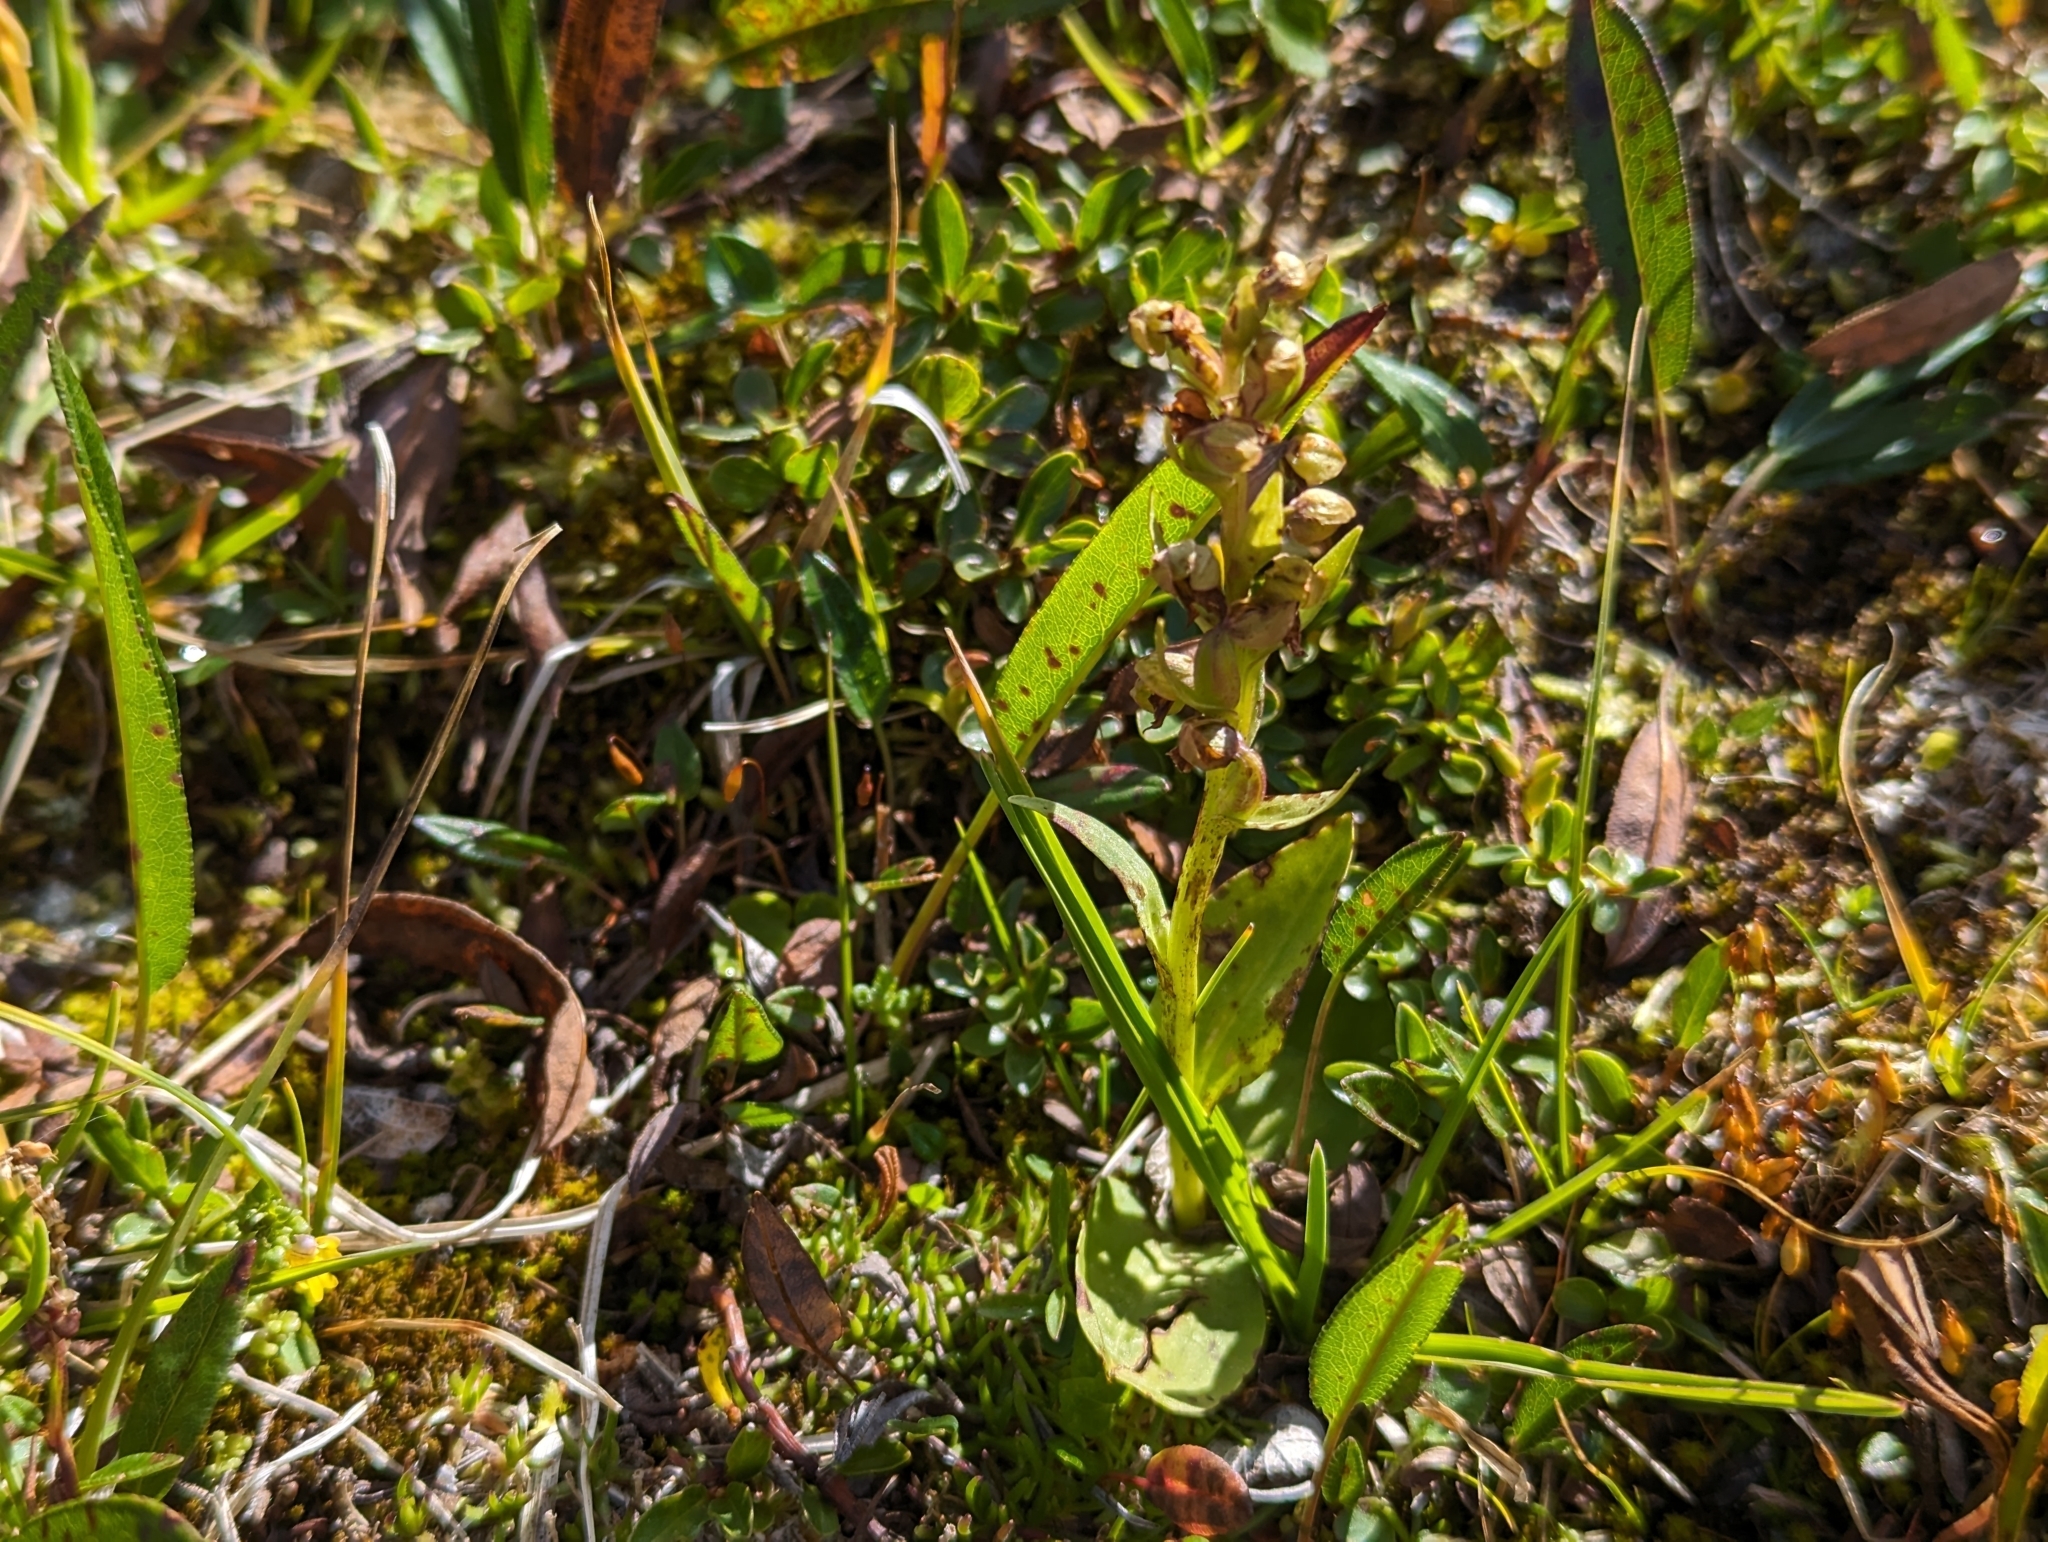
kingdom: Plantae
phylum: Tracheophyta
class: Liliopsida
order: Asparagales
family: Orchidaceae
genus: Dactylorhiza
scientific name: Dactylorhiza viridis
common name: Longbract frog orchid
